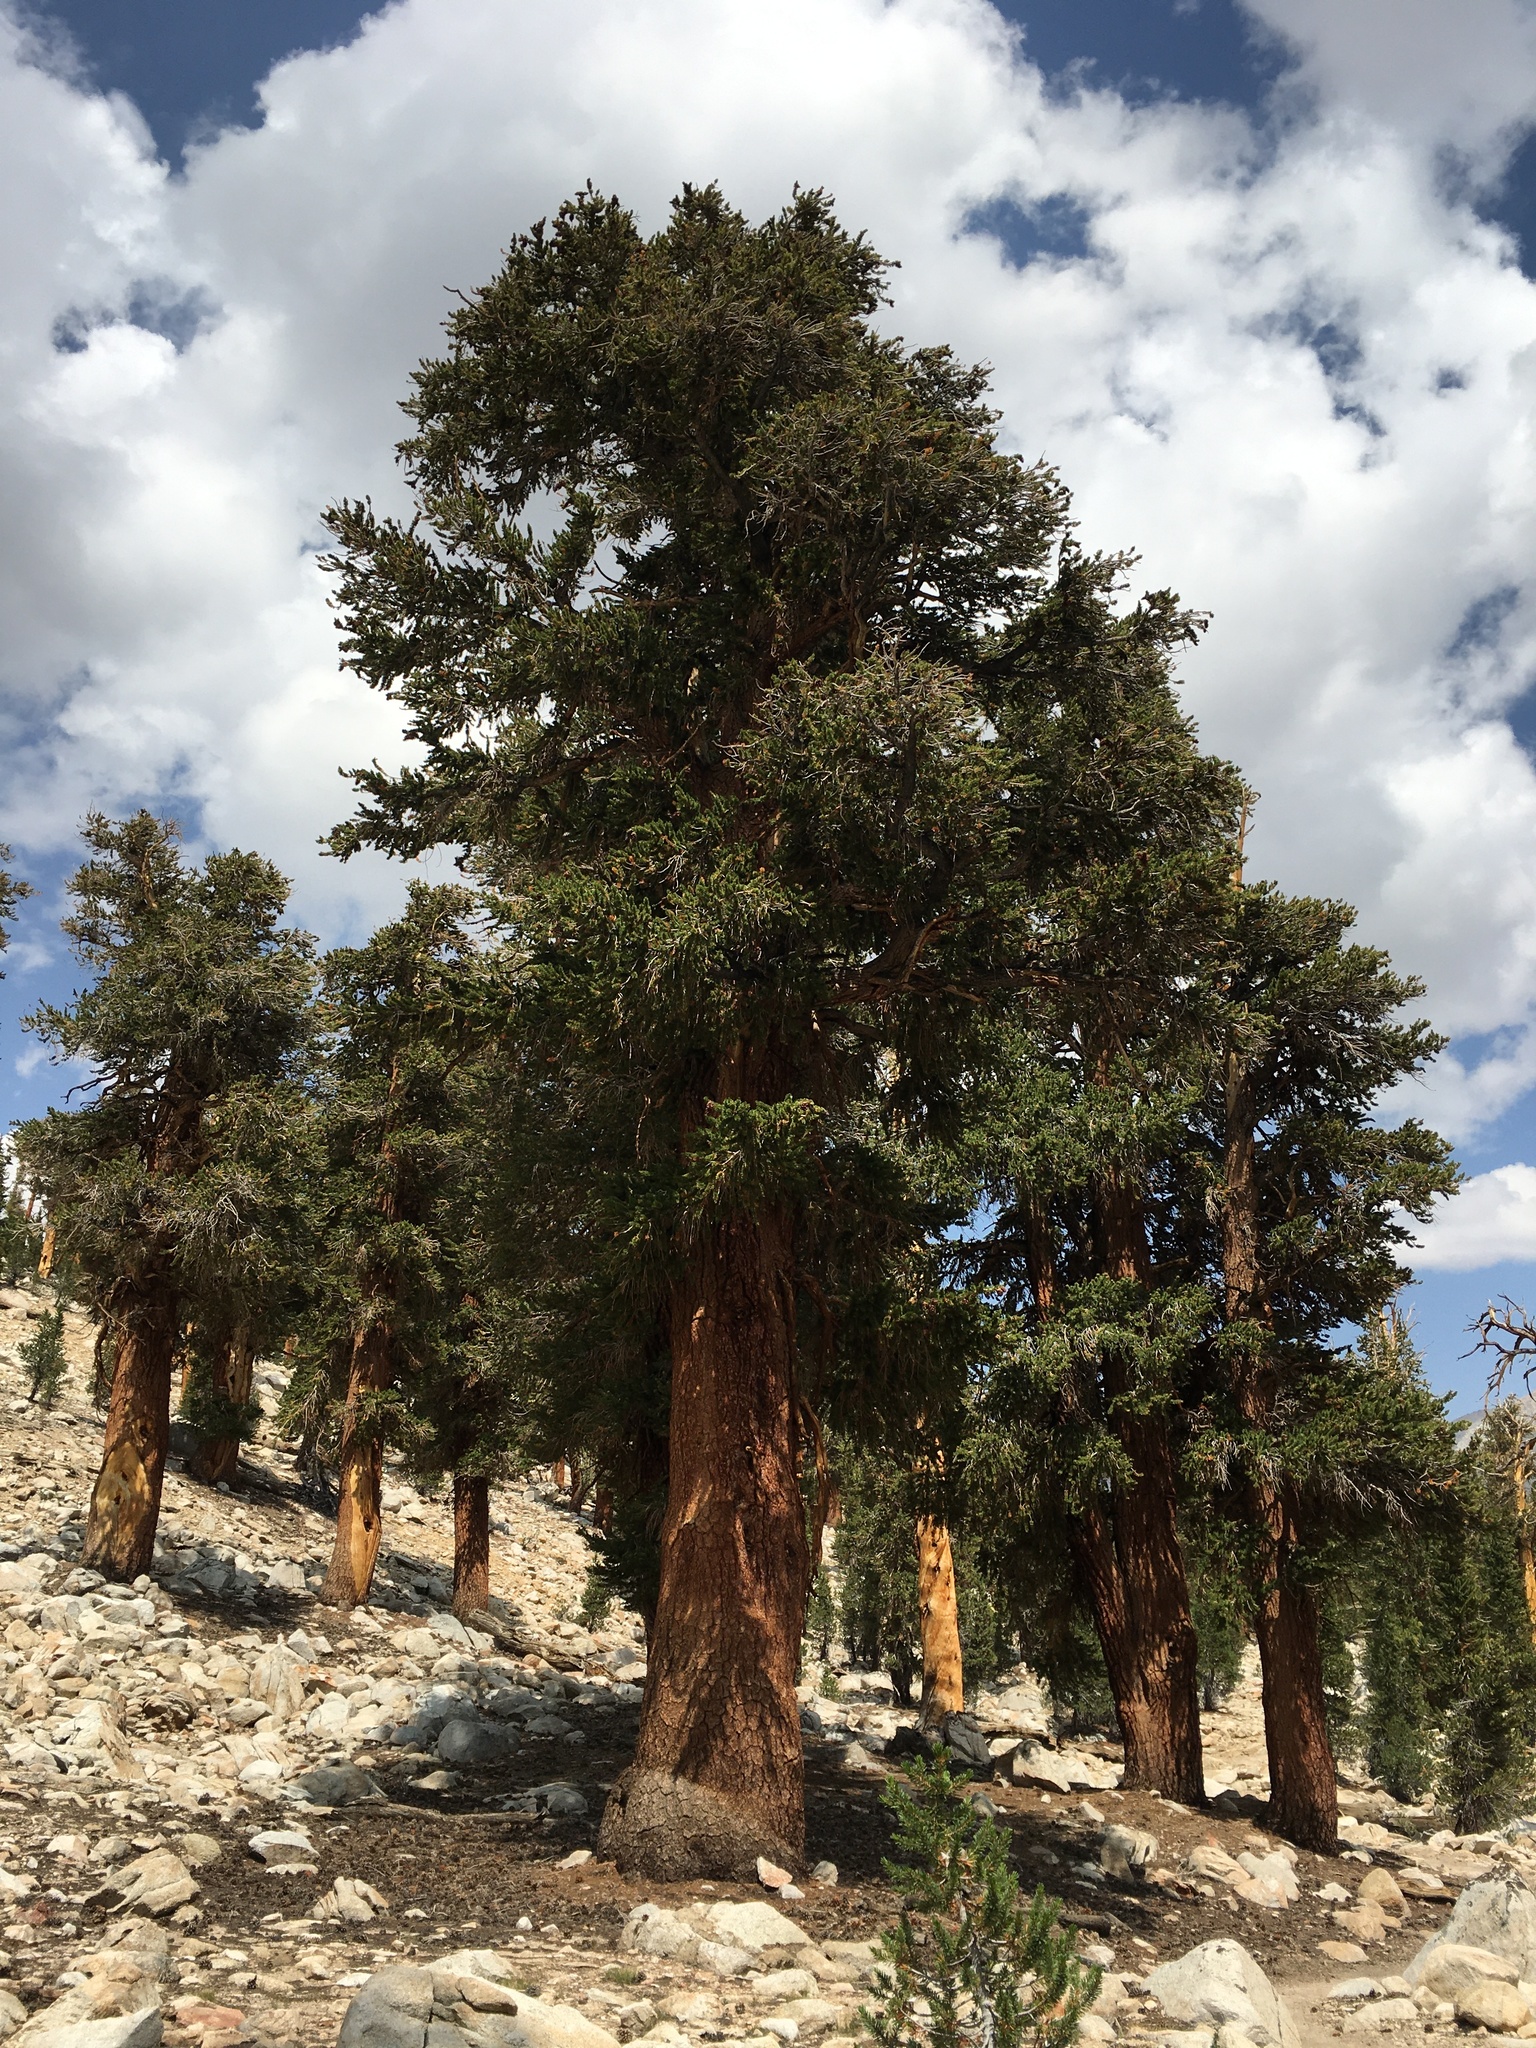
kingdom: Plantae
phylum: Tracheophyta
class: Pinopsida
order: Pinales
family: Pinaceae
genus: Pinus
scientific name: Pinus balfouriana
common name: Foxtail pine
